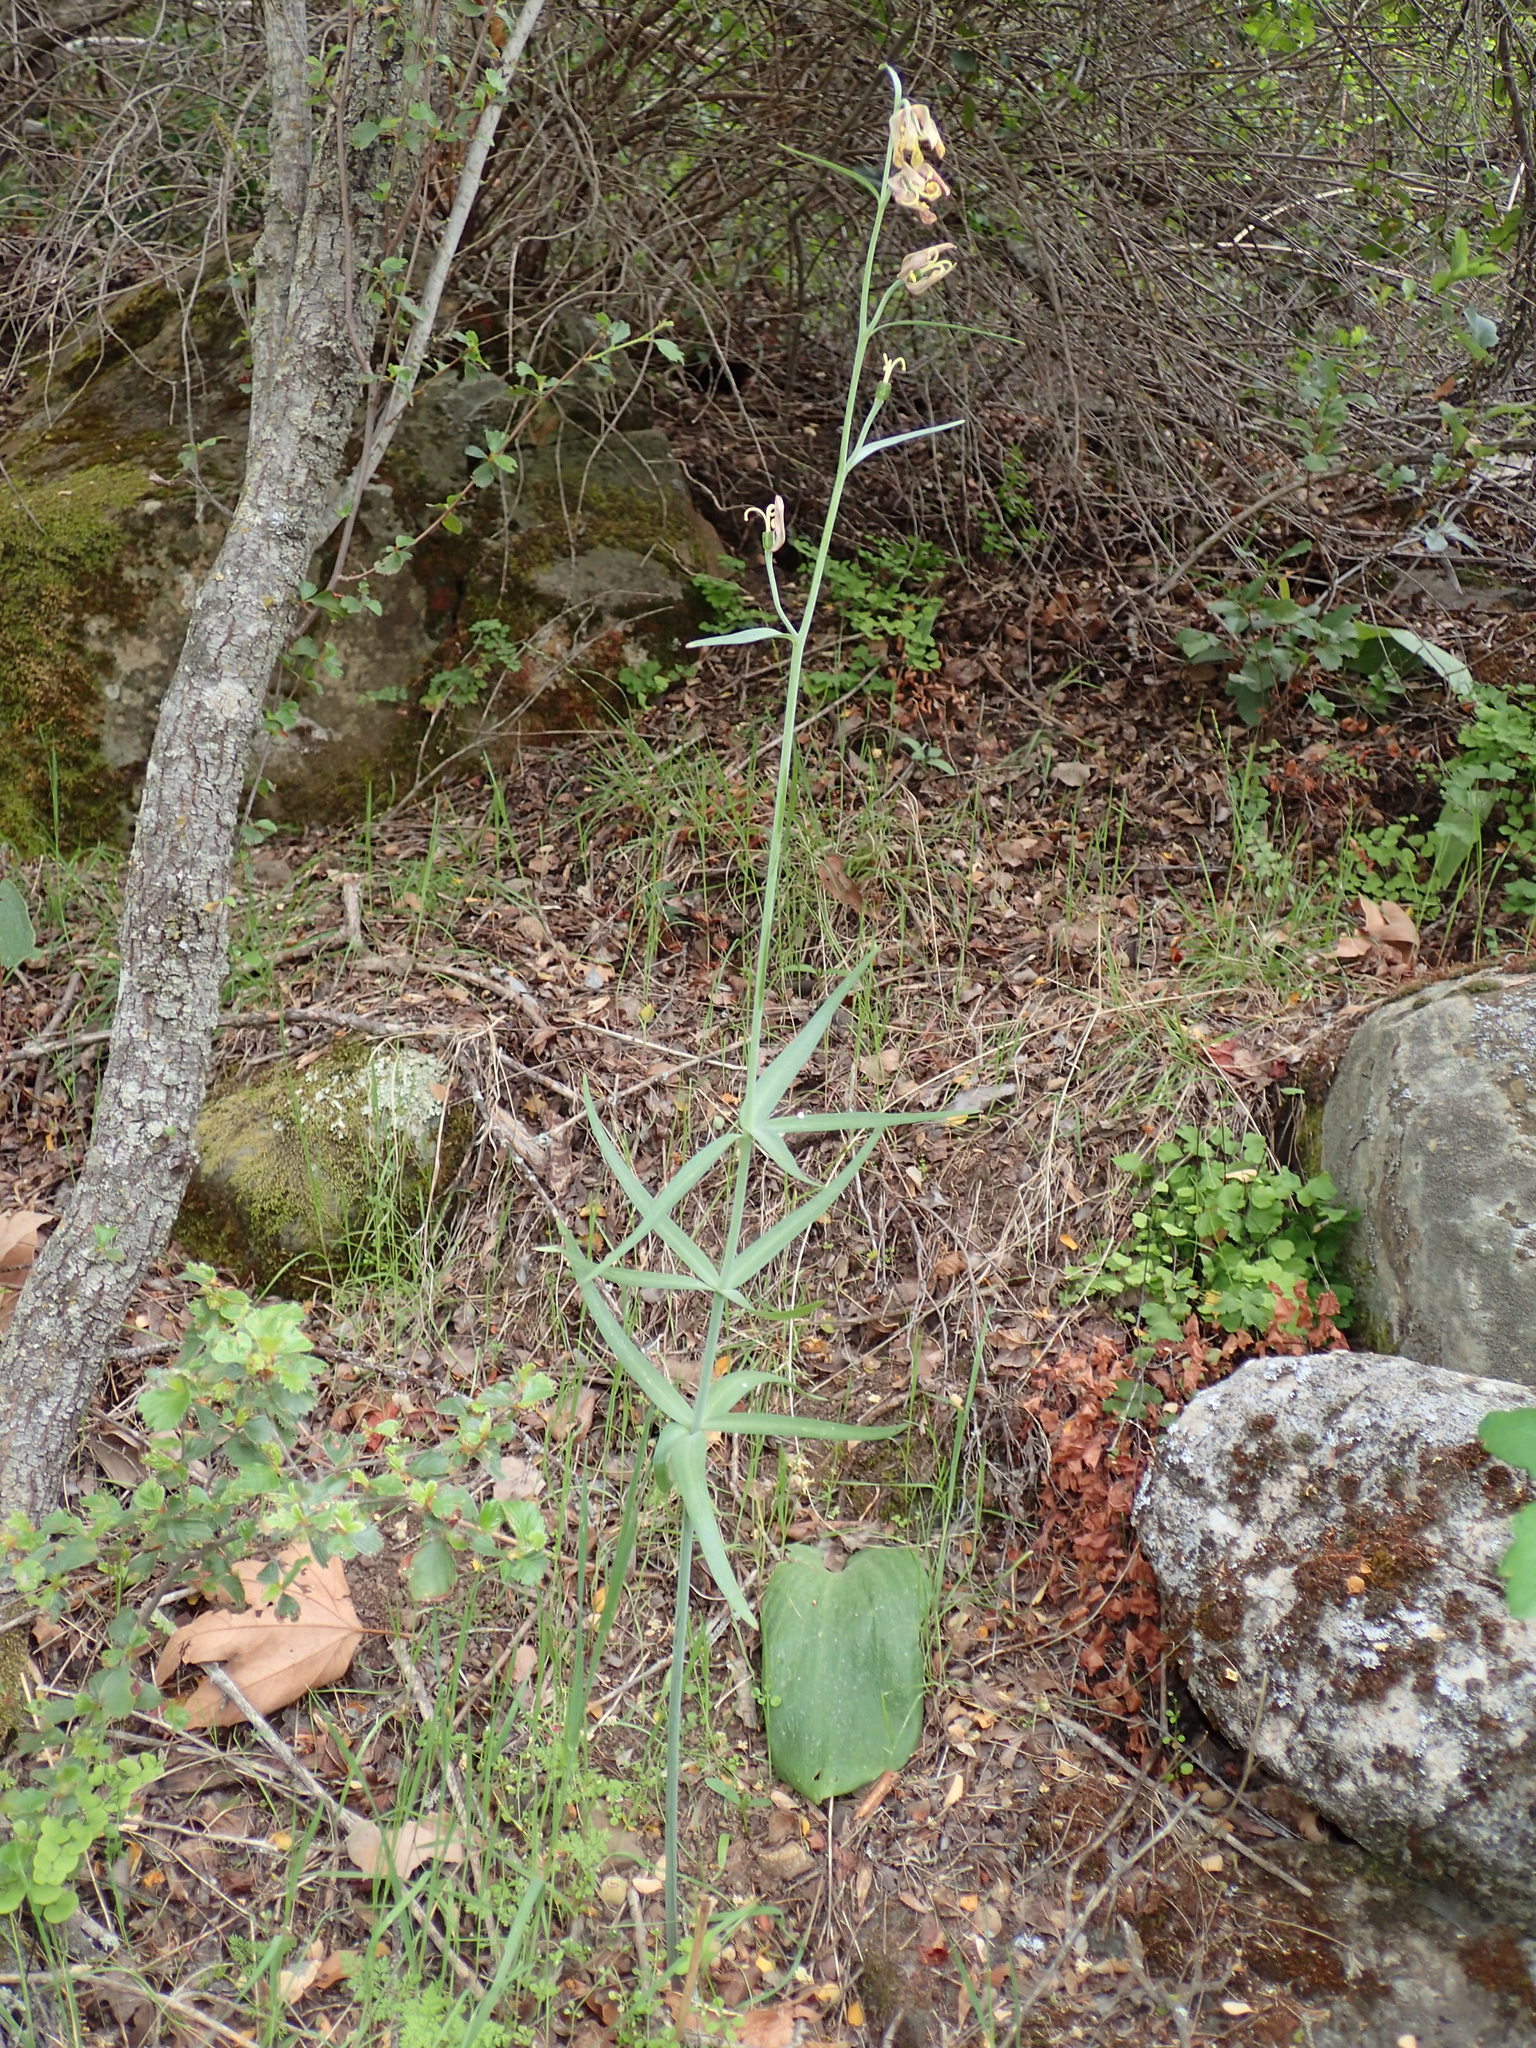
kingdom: Plantae
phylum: Tracheophyta
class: Liliopsida
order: Liliales
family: Liliaceae
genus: Fritillaria
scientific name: Fritillaria ojaiensis
